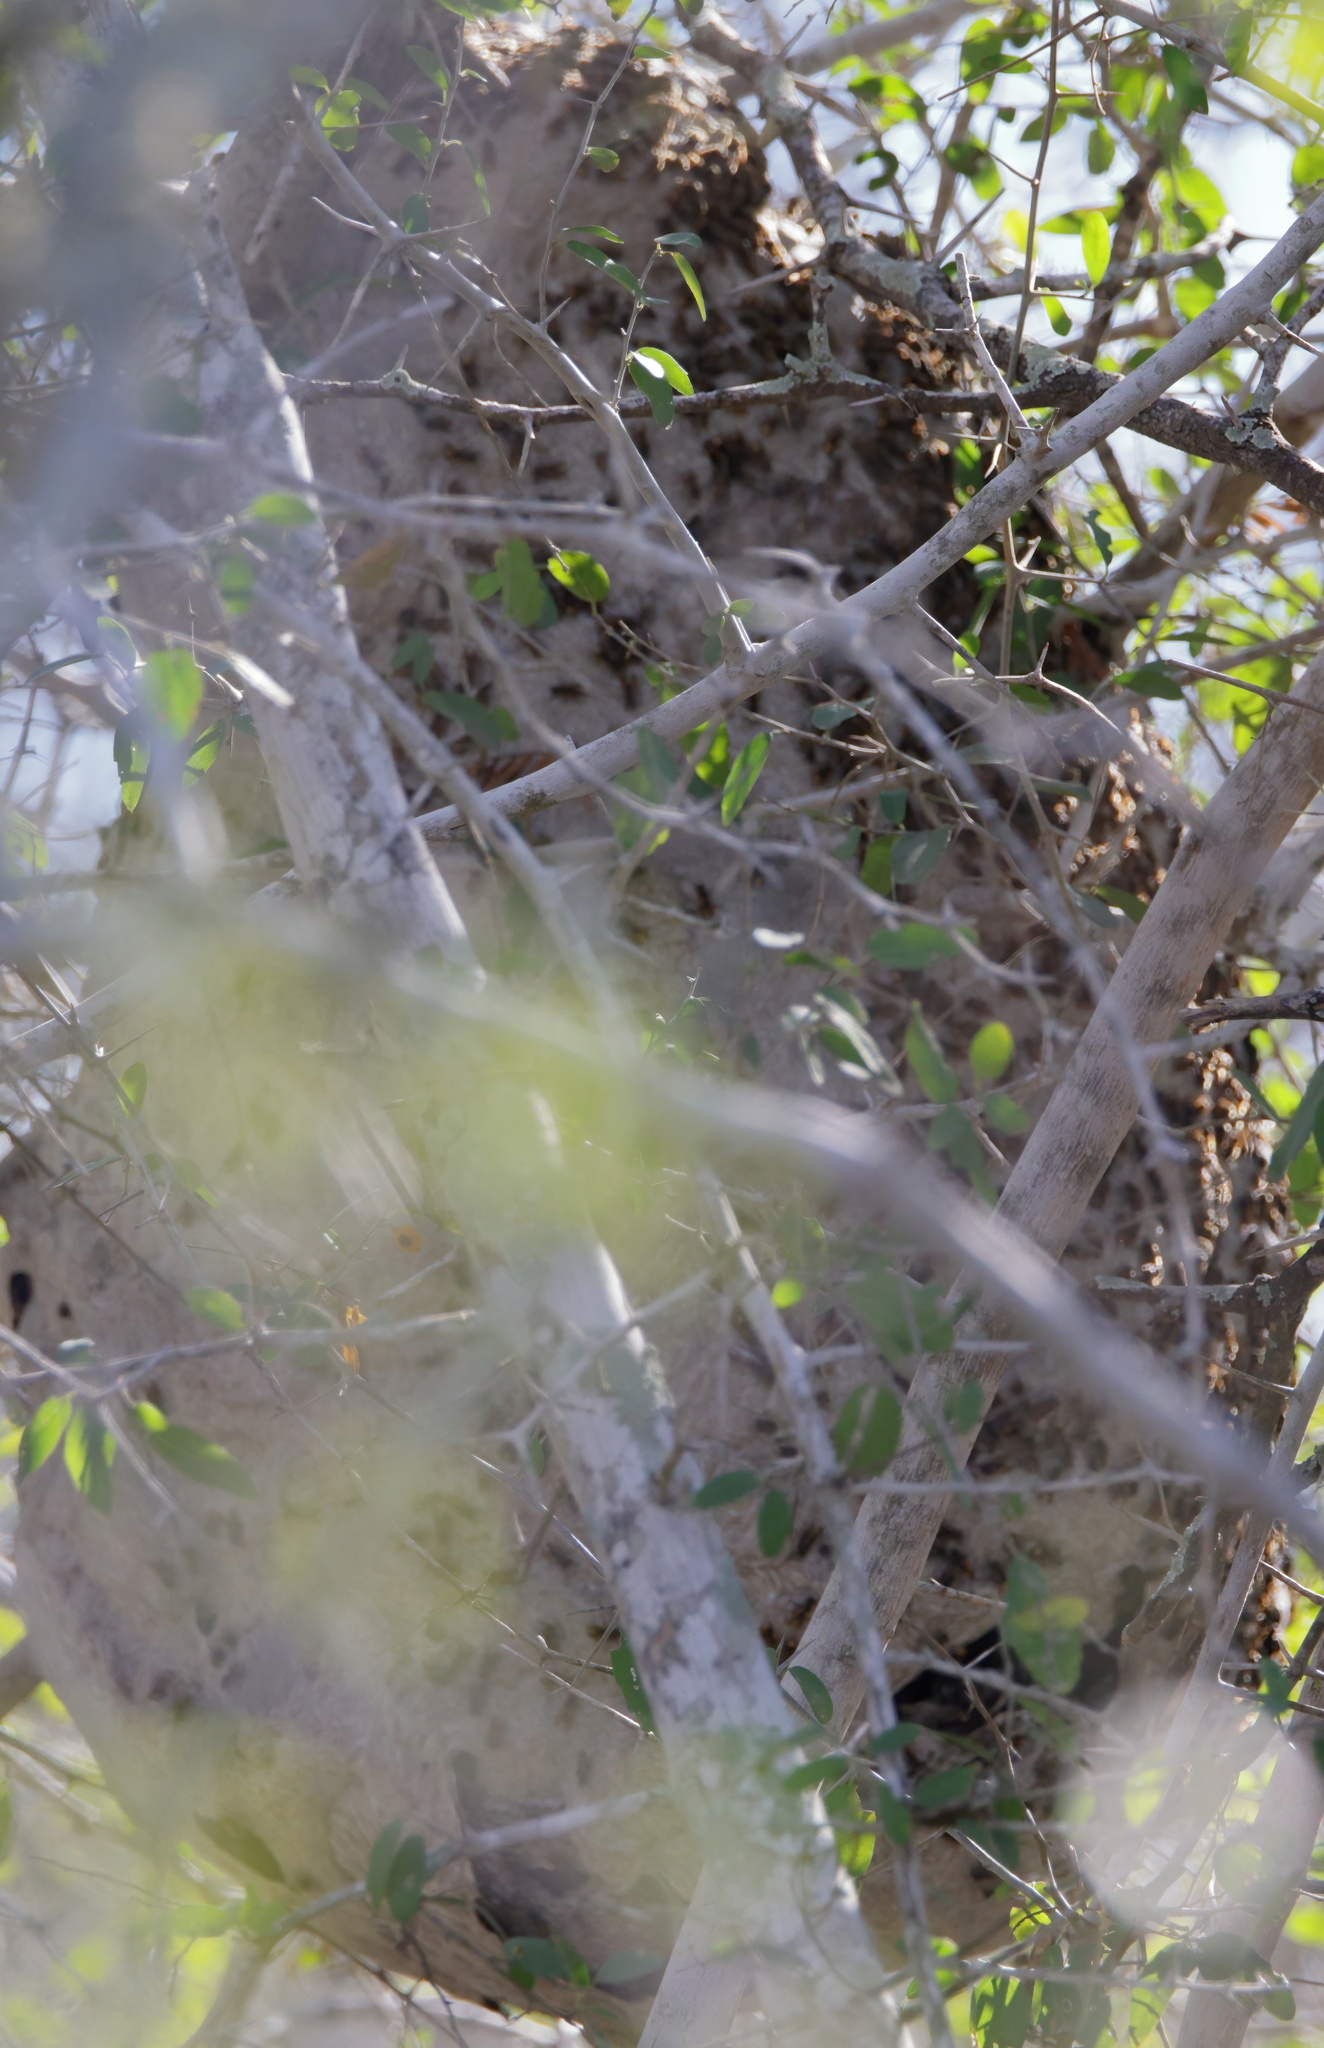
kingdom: Animalia
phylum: Arthropoda
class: Insecta
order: Hymenoptera
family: Vespidae
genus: Brachygastra
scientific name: Brachygastra mellifica
